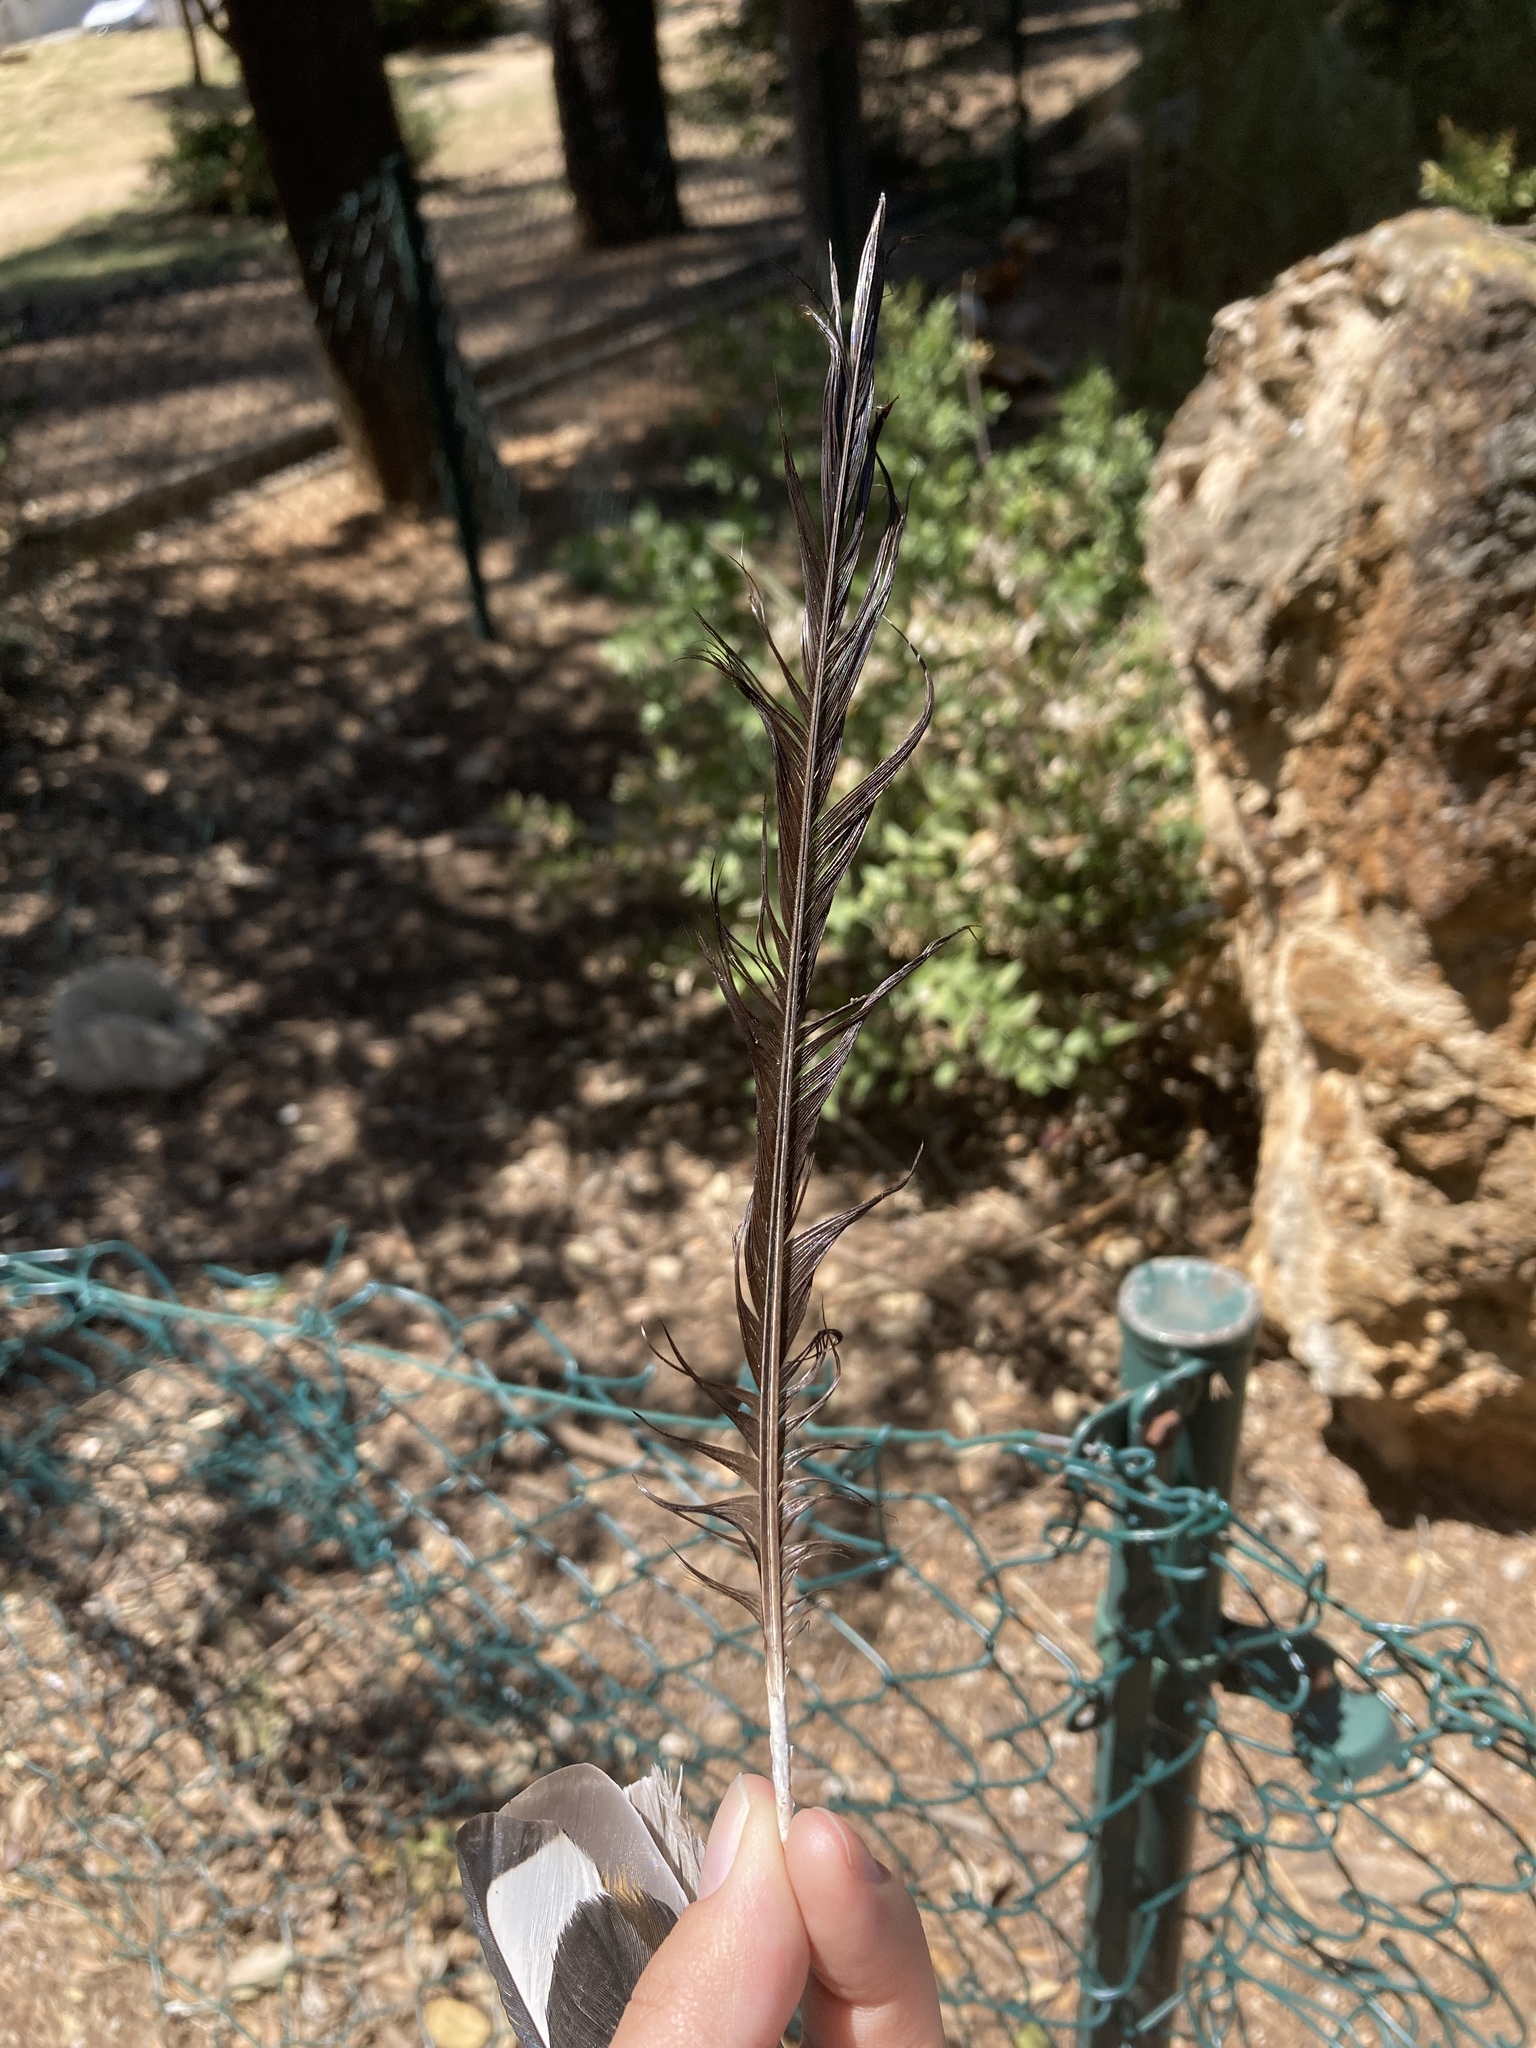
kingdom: Animalia
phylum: Chordata
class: Aves
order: Passeriformes
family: Corvidae
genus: Pica
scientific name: Pica pica
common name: Eurasian magpie
